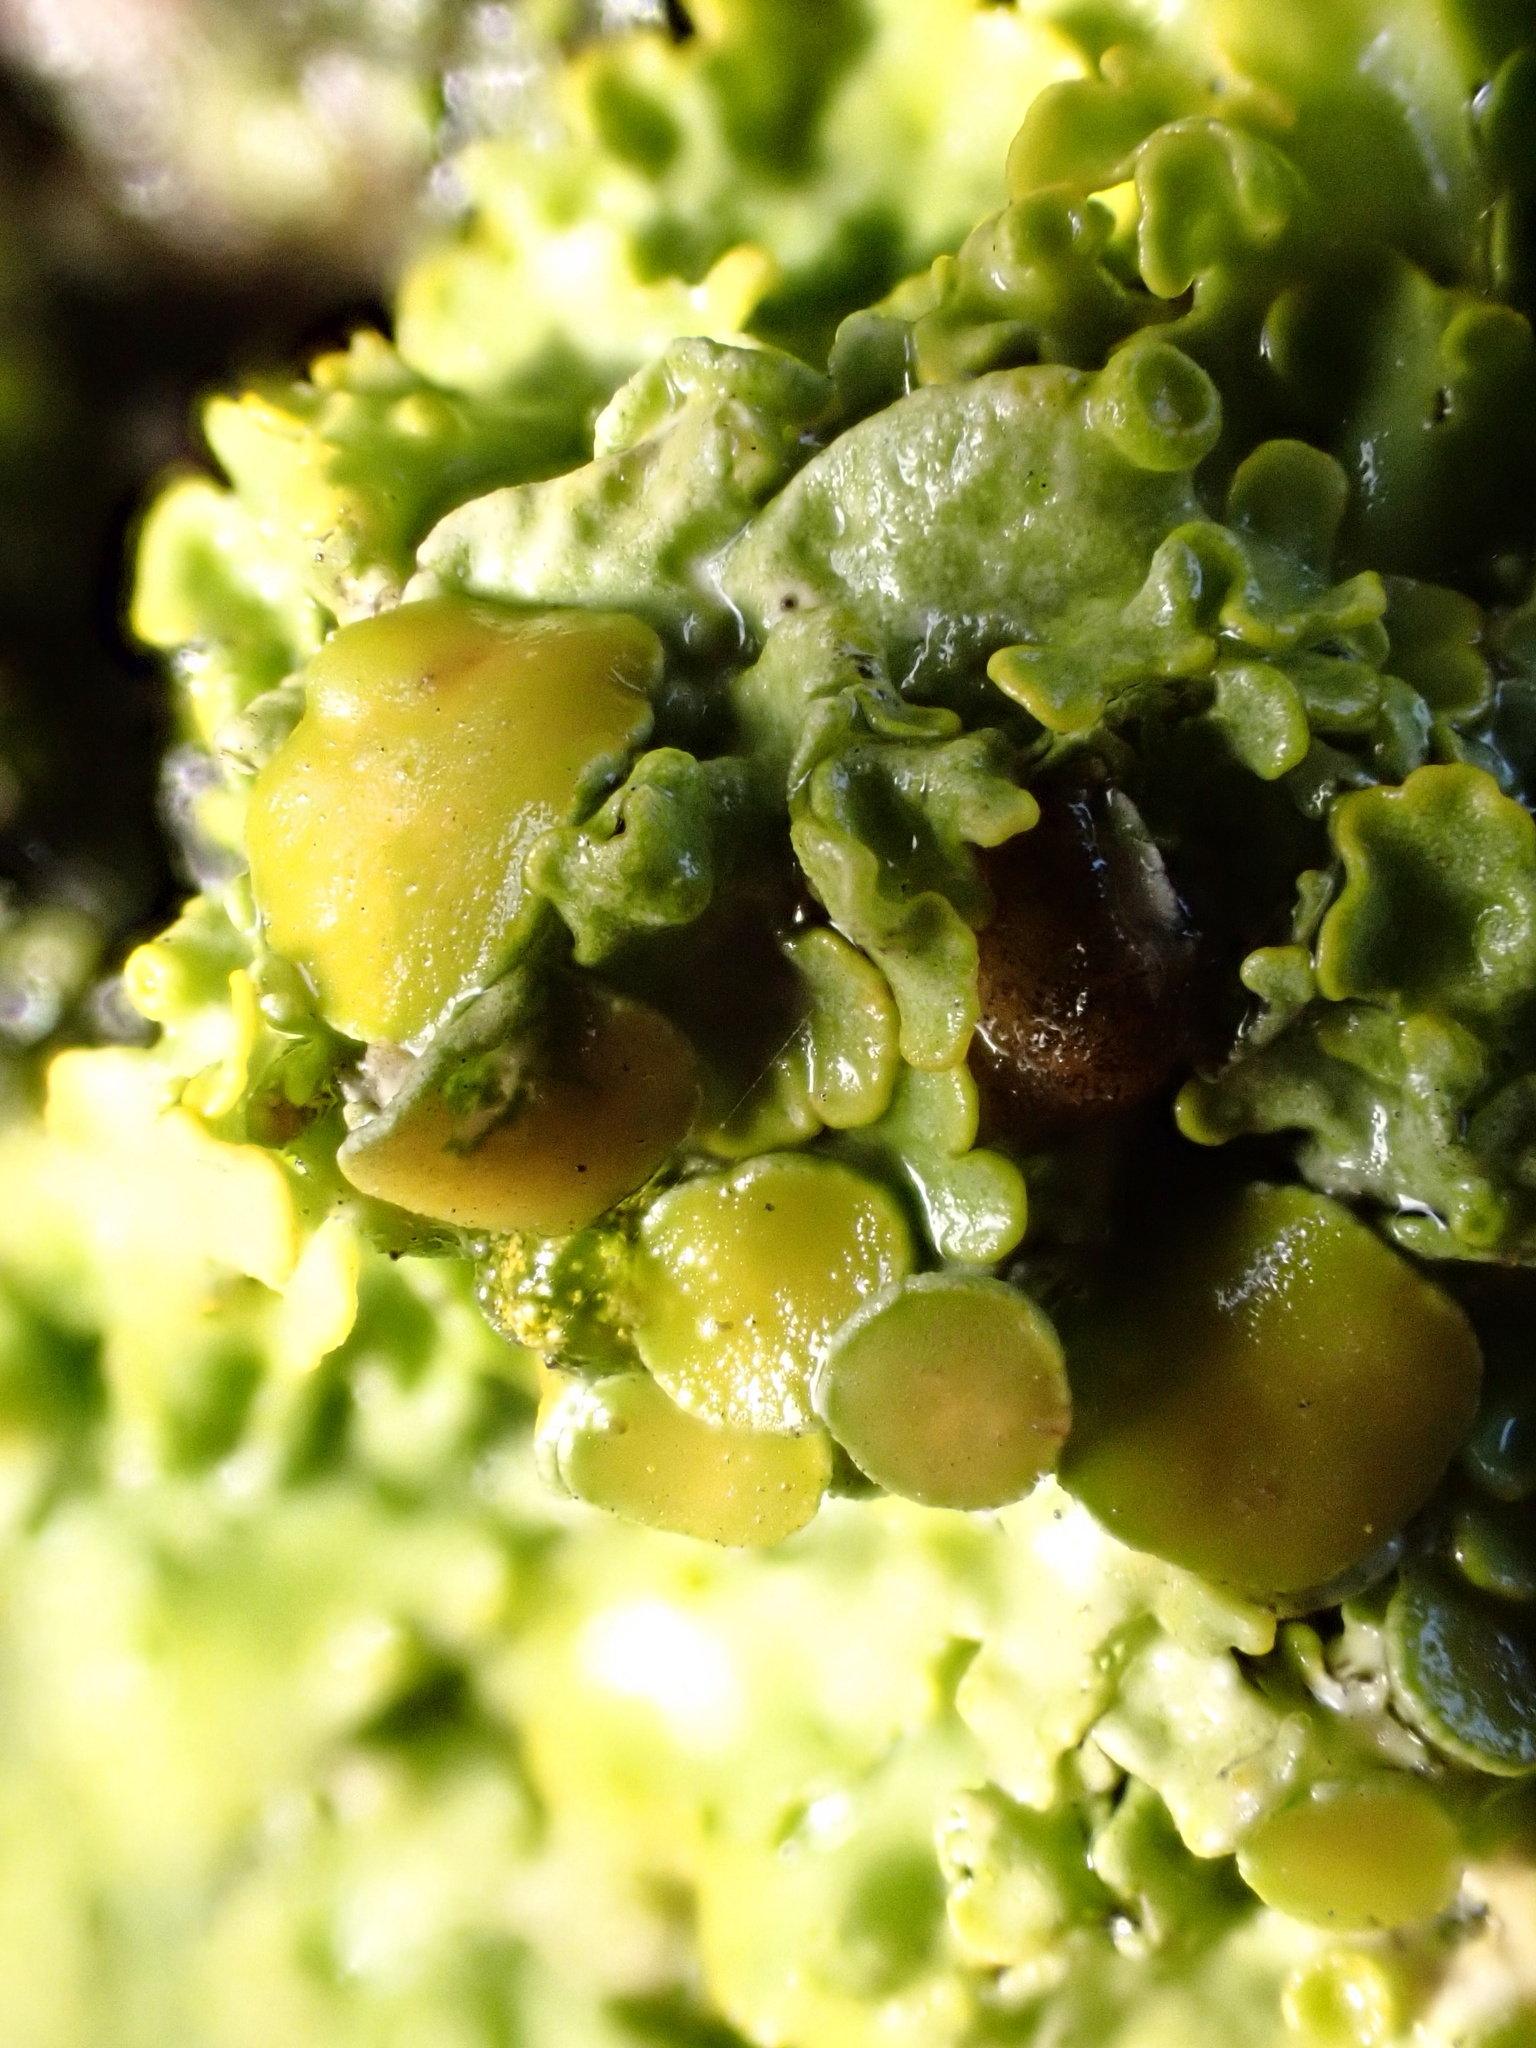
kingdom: Fungi
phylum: Ascomycota
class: Lecanoromycetes
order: Teloschistales
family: Teloschistaceae
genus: Xanthoria
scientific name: Xanthoria parietina
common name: Common orange lichen
